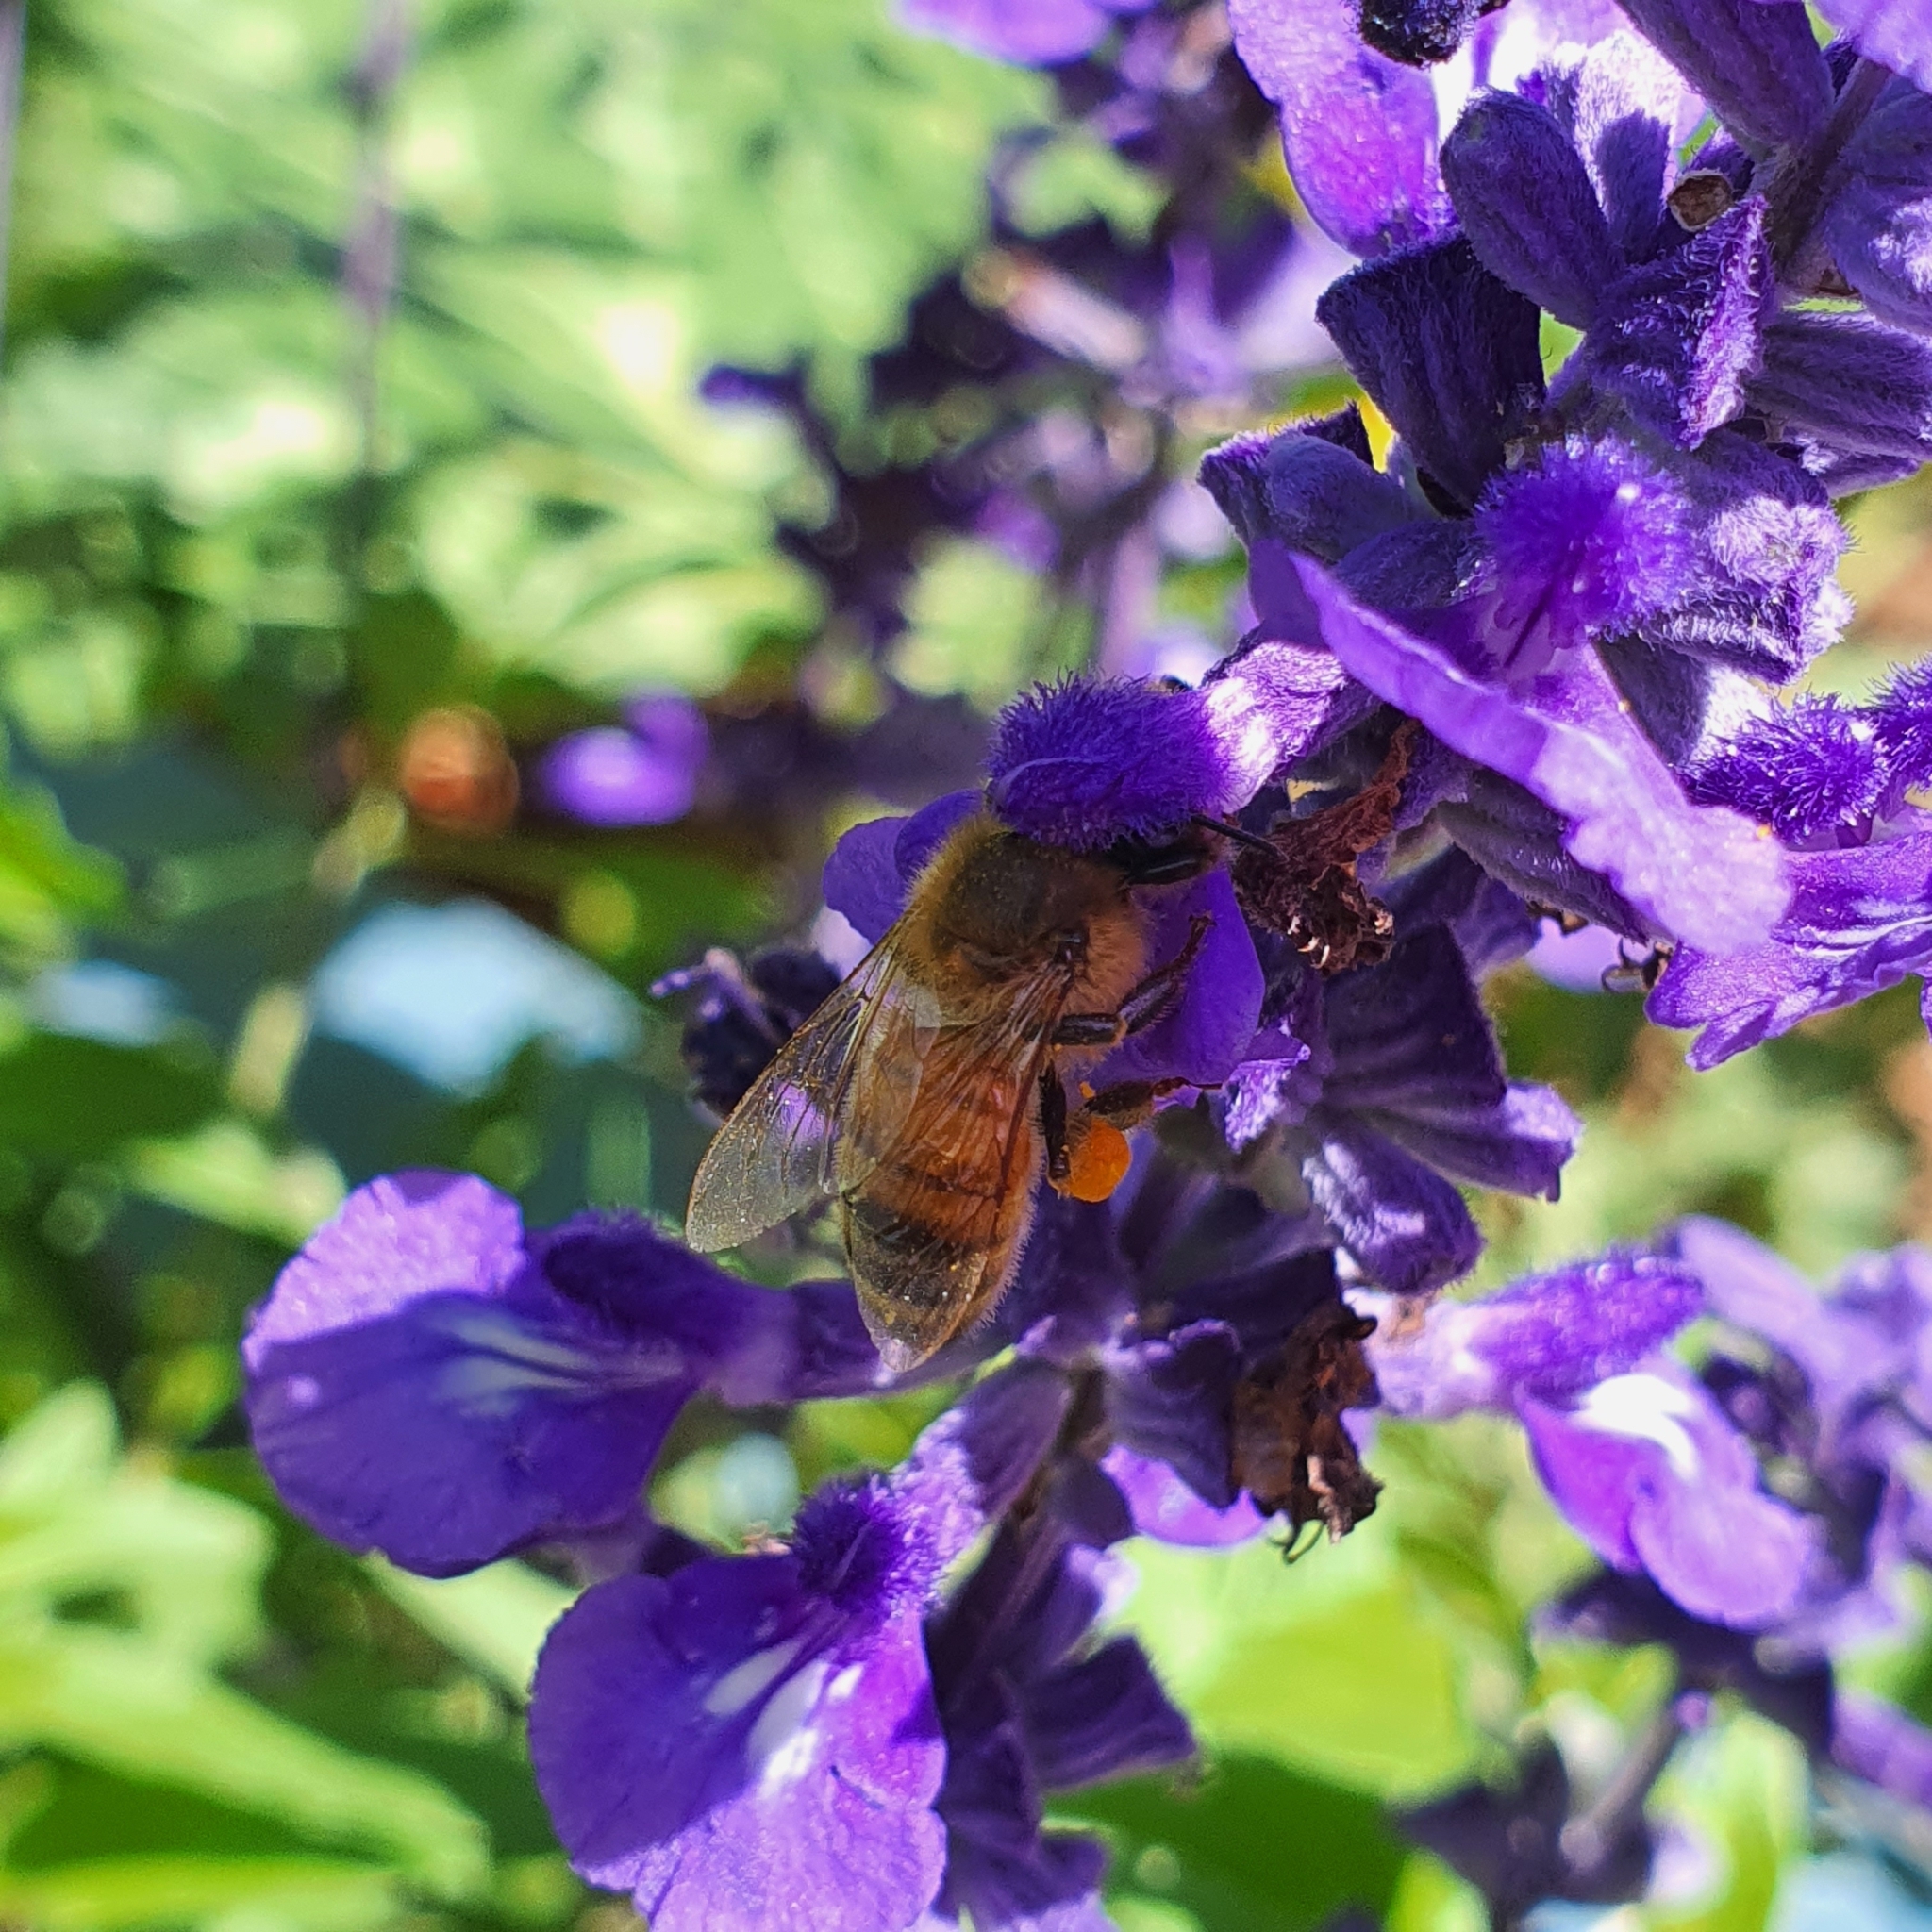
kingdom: Animalia
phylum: Arthropoda
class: Insecta
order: Hymenoptera
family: Apidae
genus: Apis
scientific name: Apis mellifera
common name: Honey bee
